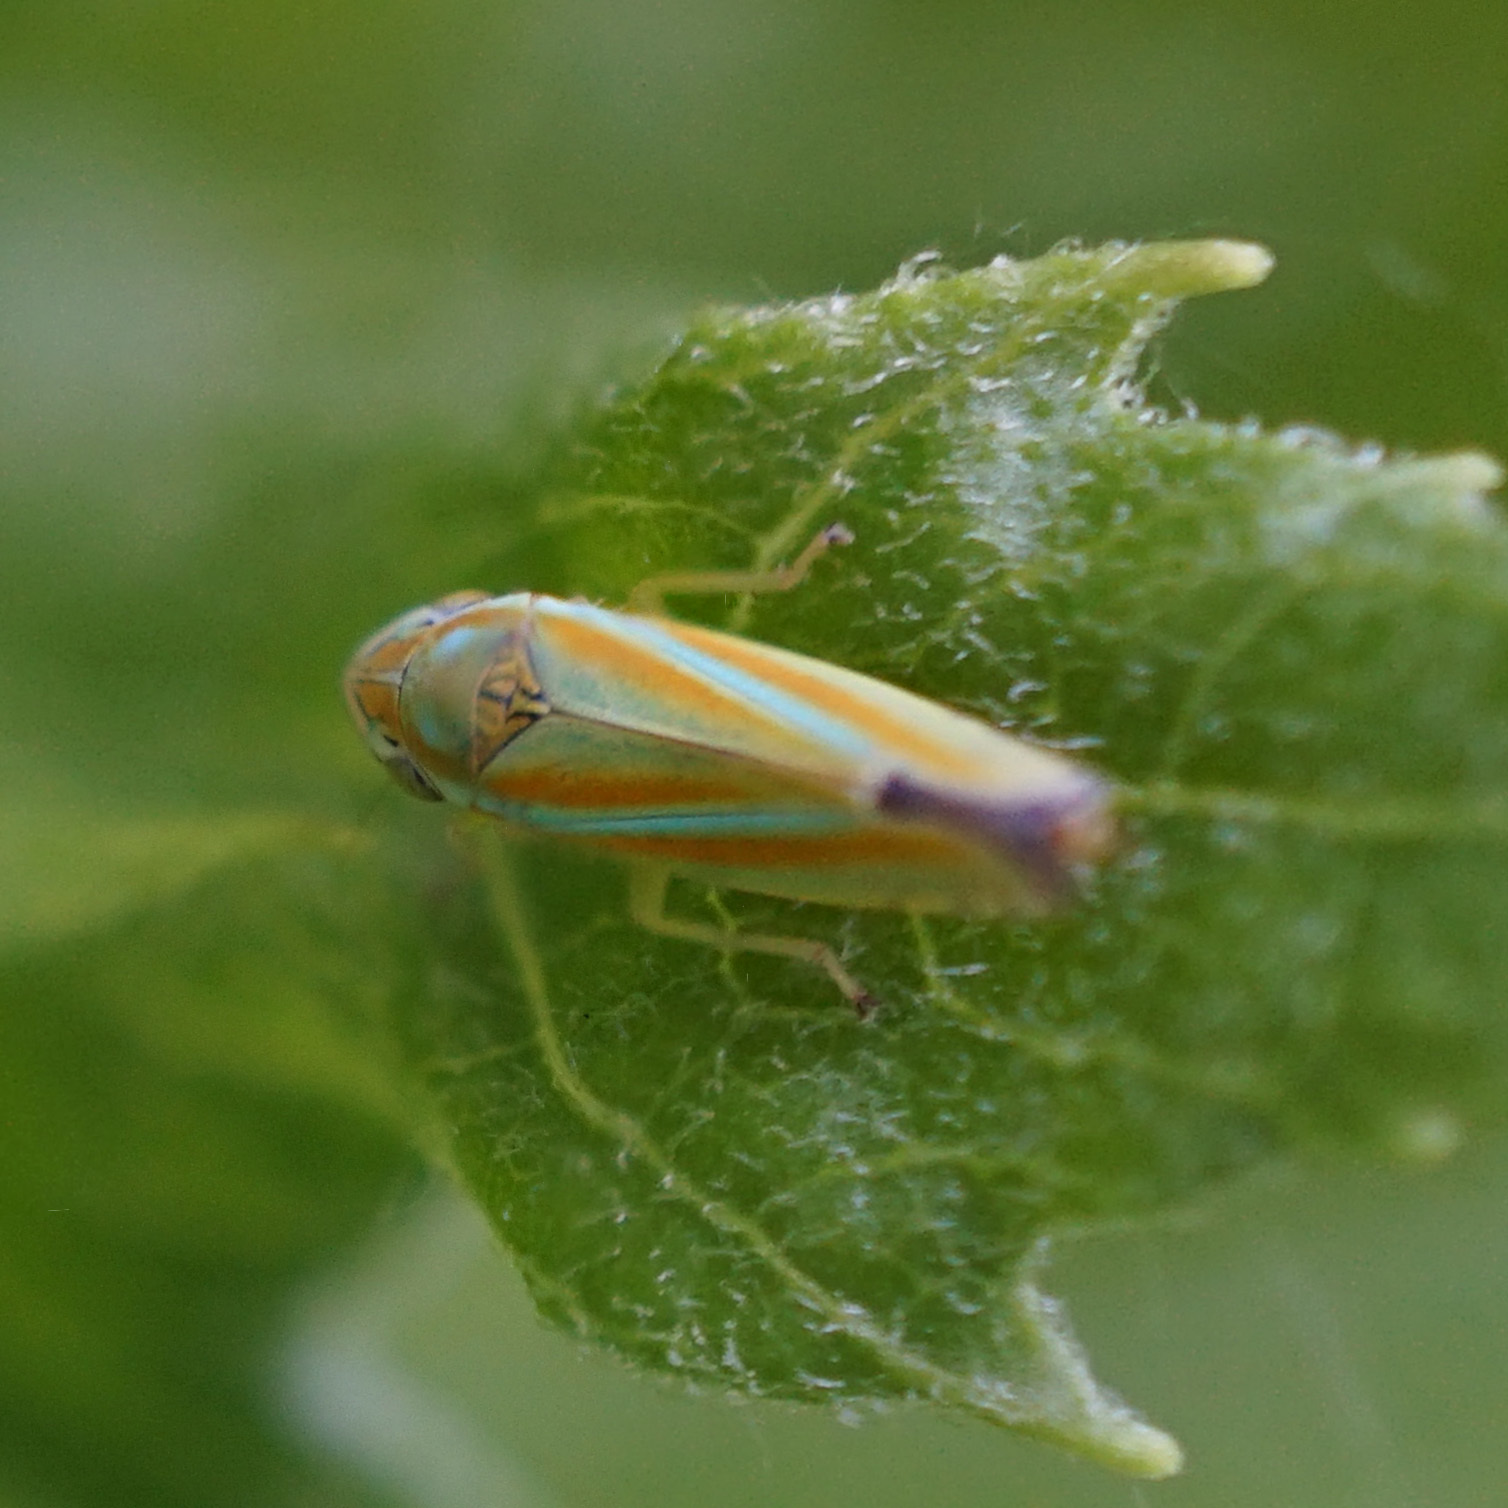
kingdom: Animalia
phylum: Arthropoda
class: Insecta
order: Hemiptera
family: Cicadellidae
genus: Graphocephala
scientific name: Graphocephala versuta
